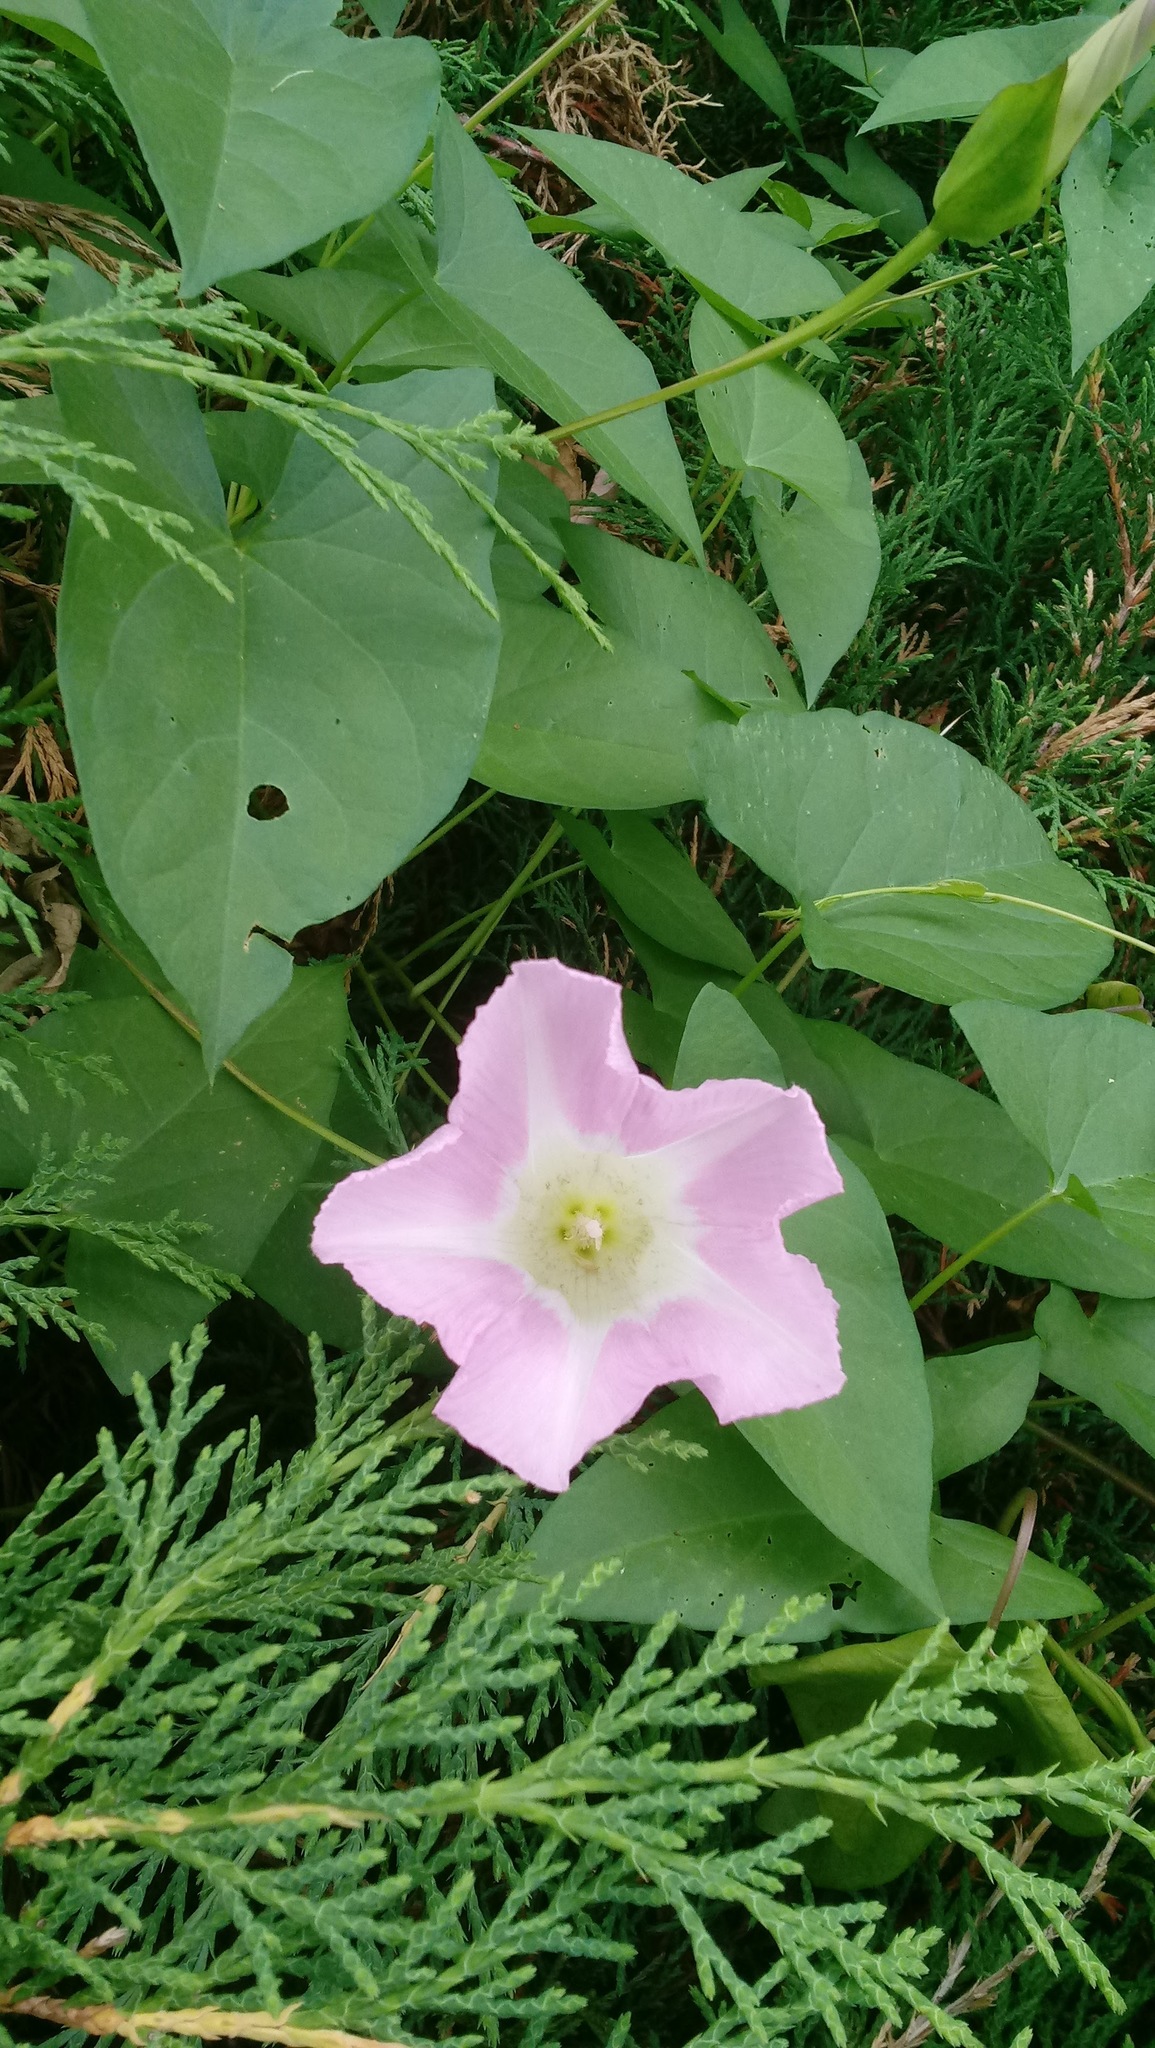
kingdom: Plantae
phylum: Tracheophyta
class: Magnoliopsida
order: Solanales
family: Convolvulaceae
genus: Calystegia
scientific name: Calystegia sepium
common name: Hedge bindweed
